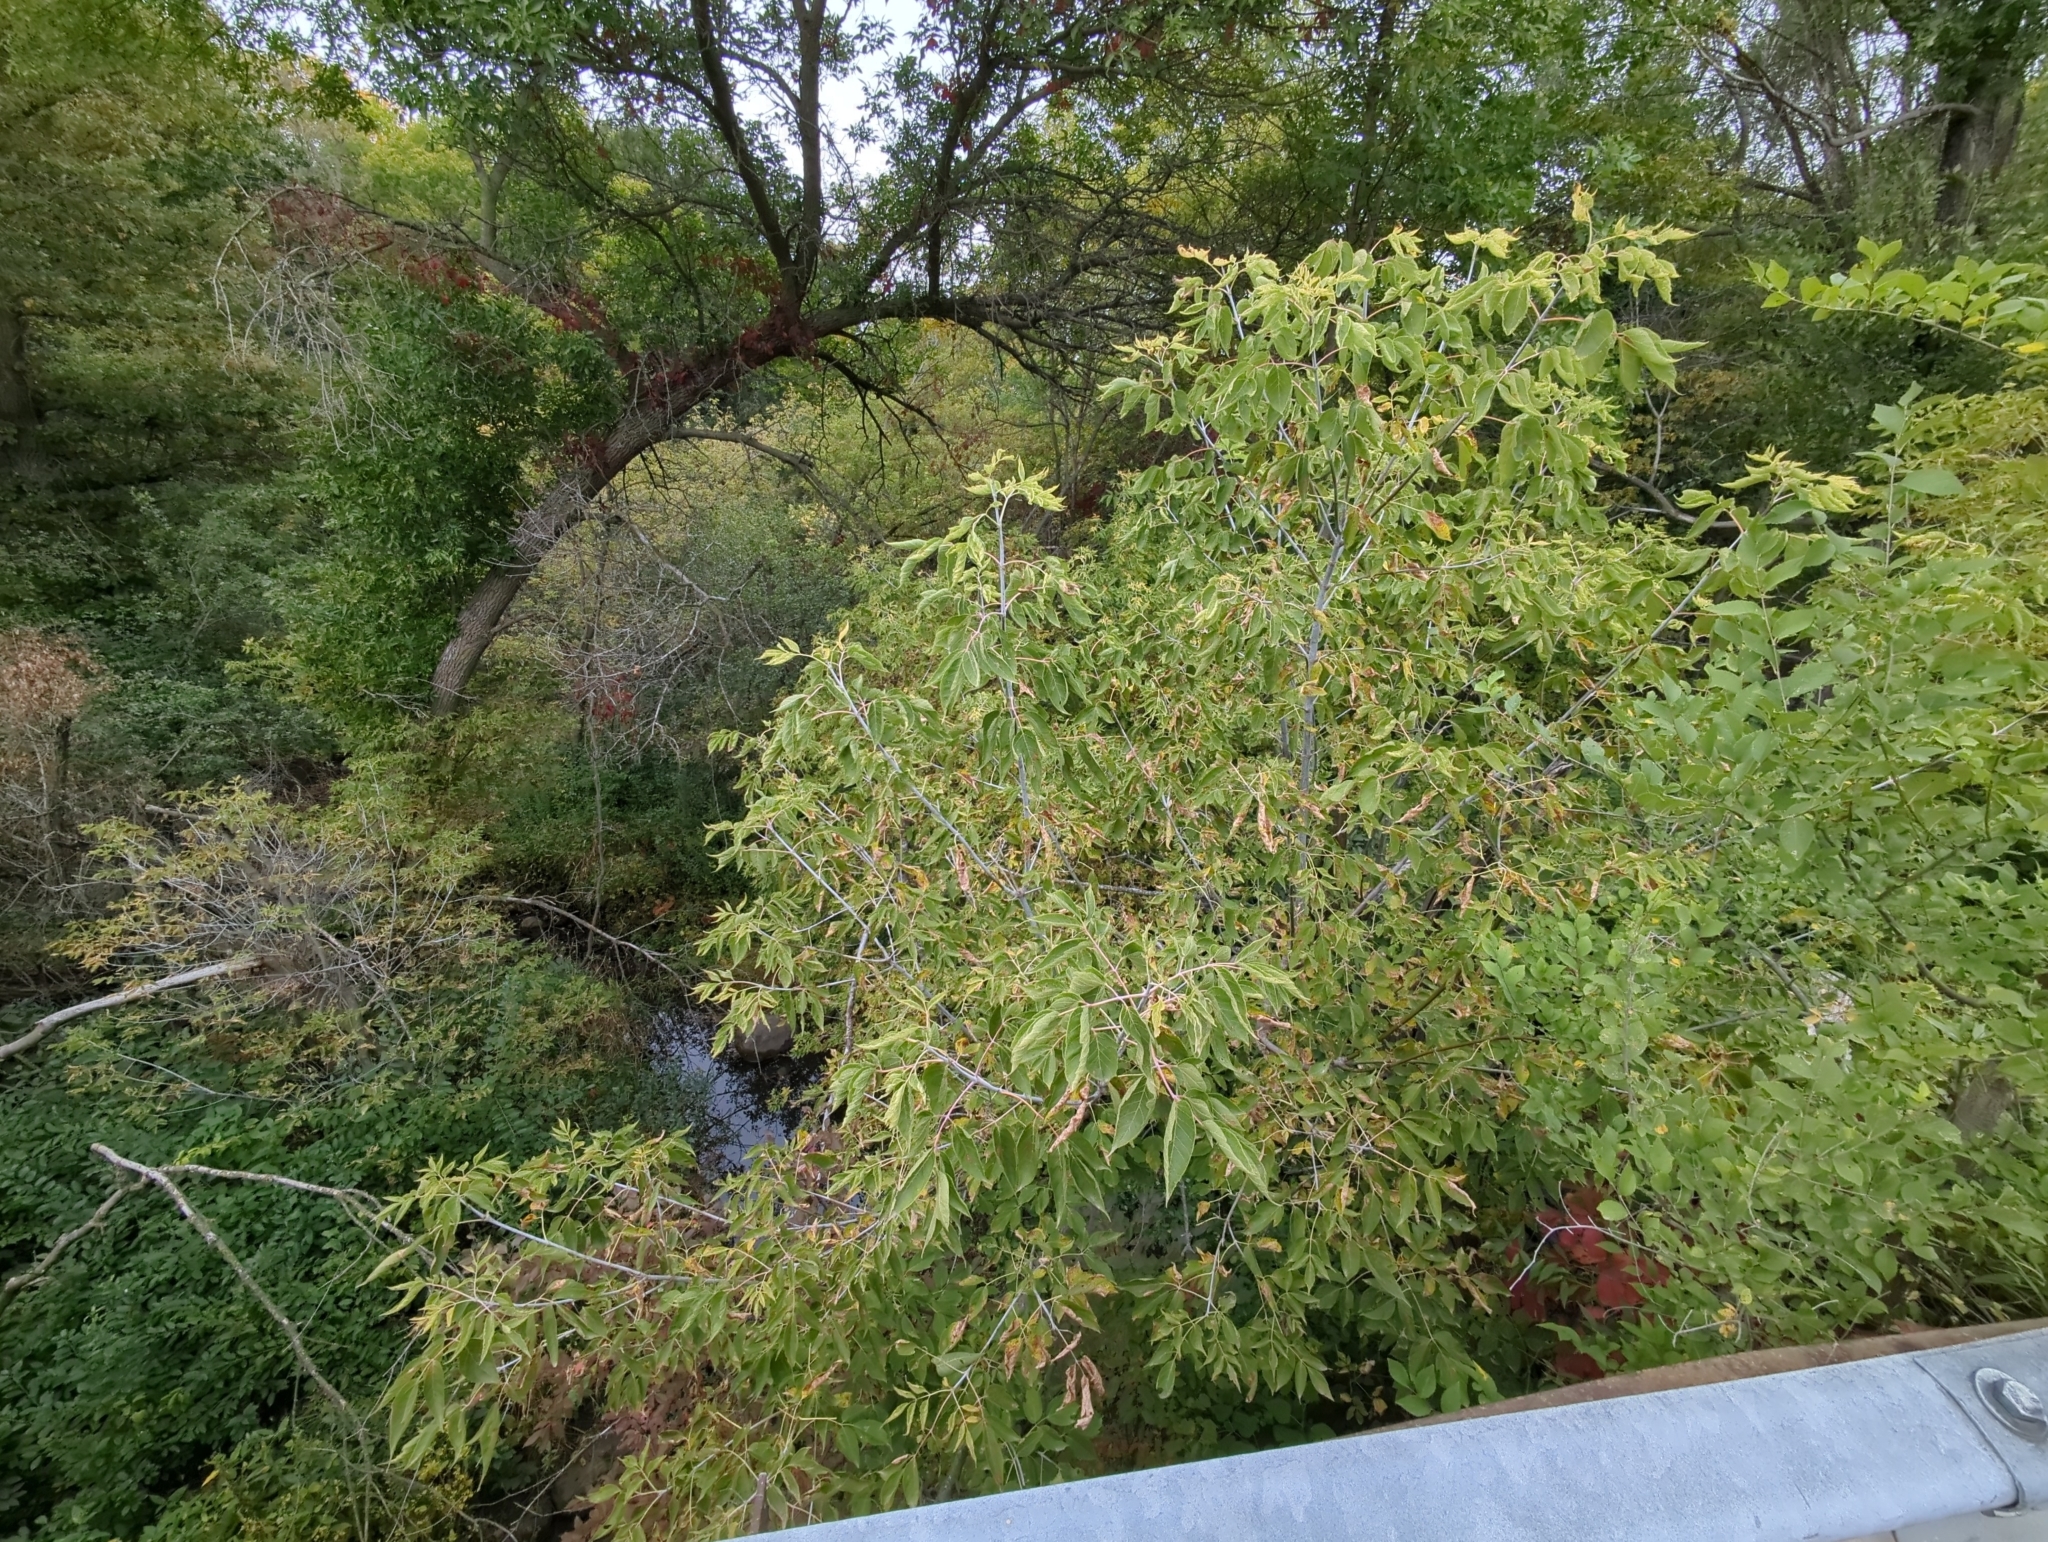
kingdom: Plantae
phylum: Tracheophyta
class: Magnoliopsida
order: Sapindales
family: Sapindaceae
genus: Acer
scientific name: Acer negundo
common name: Ashleaf maple
